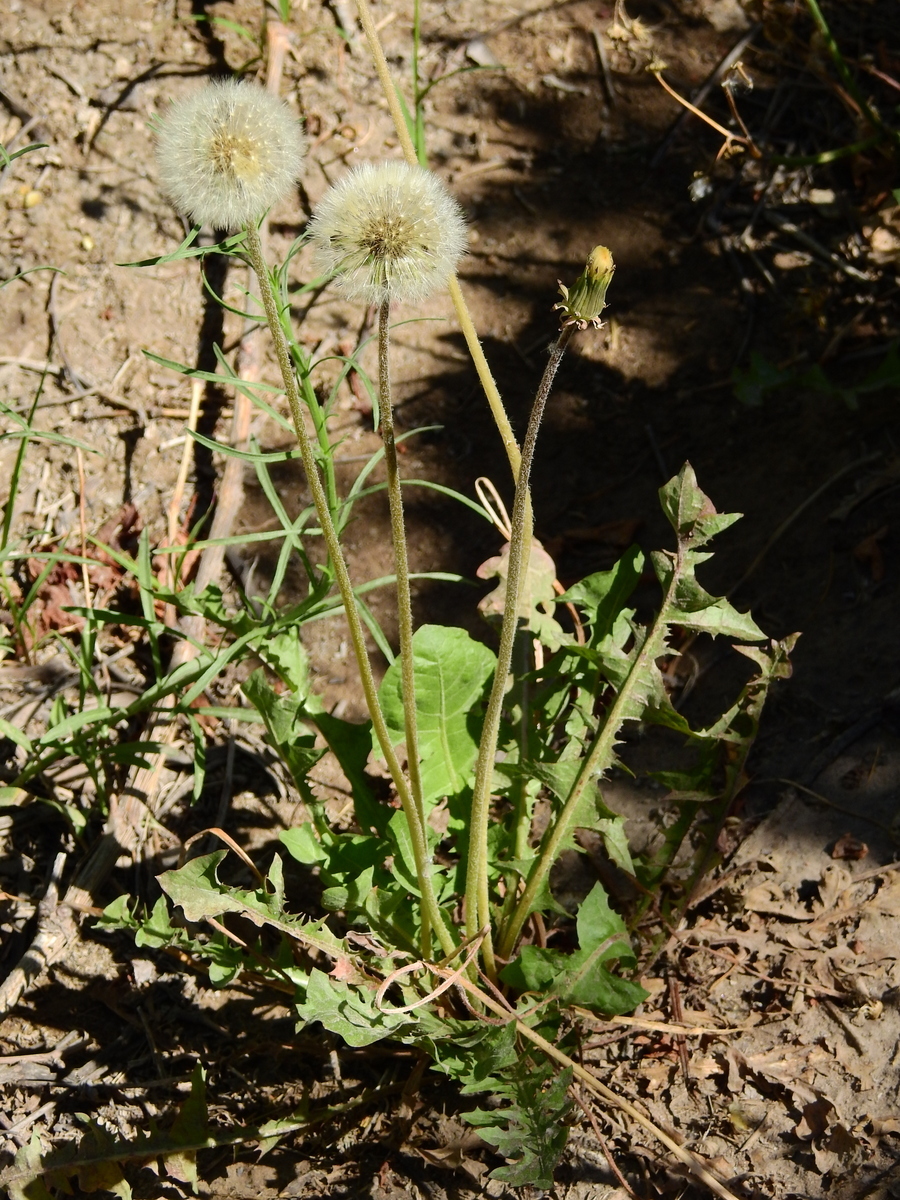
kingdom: Plantae
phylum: Tracheophyta
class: Magnoliopsida
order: Asterales
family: Asteraceae
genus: Taraxacum
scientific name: Taraxacum officinale
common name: Common dandelion
